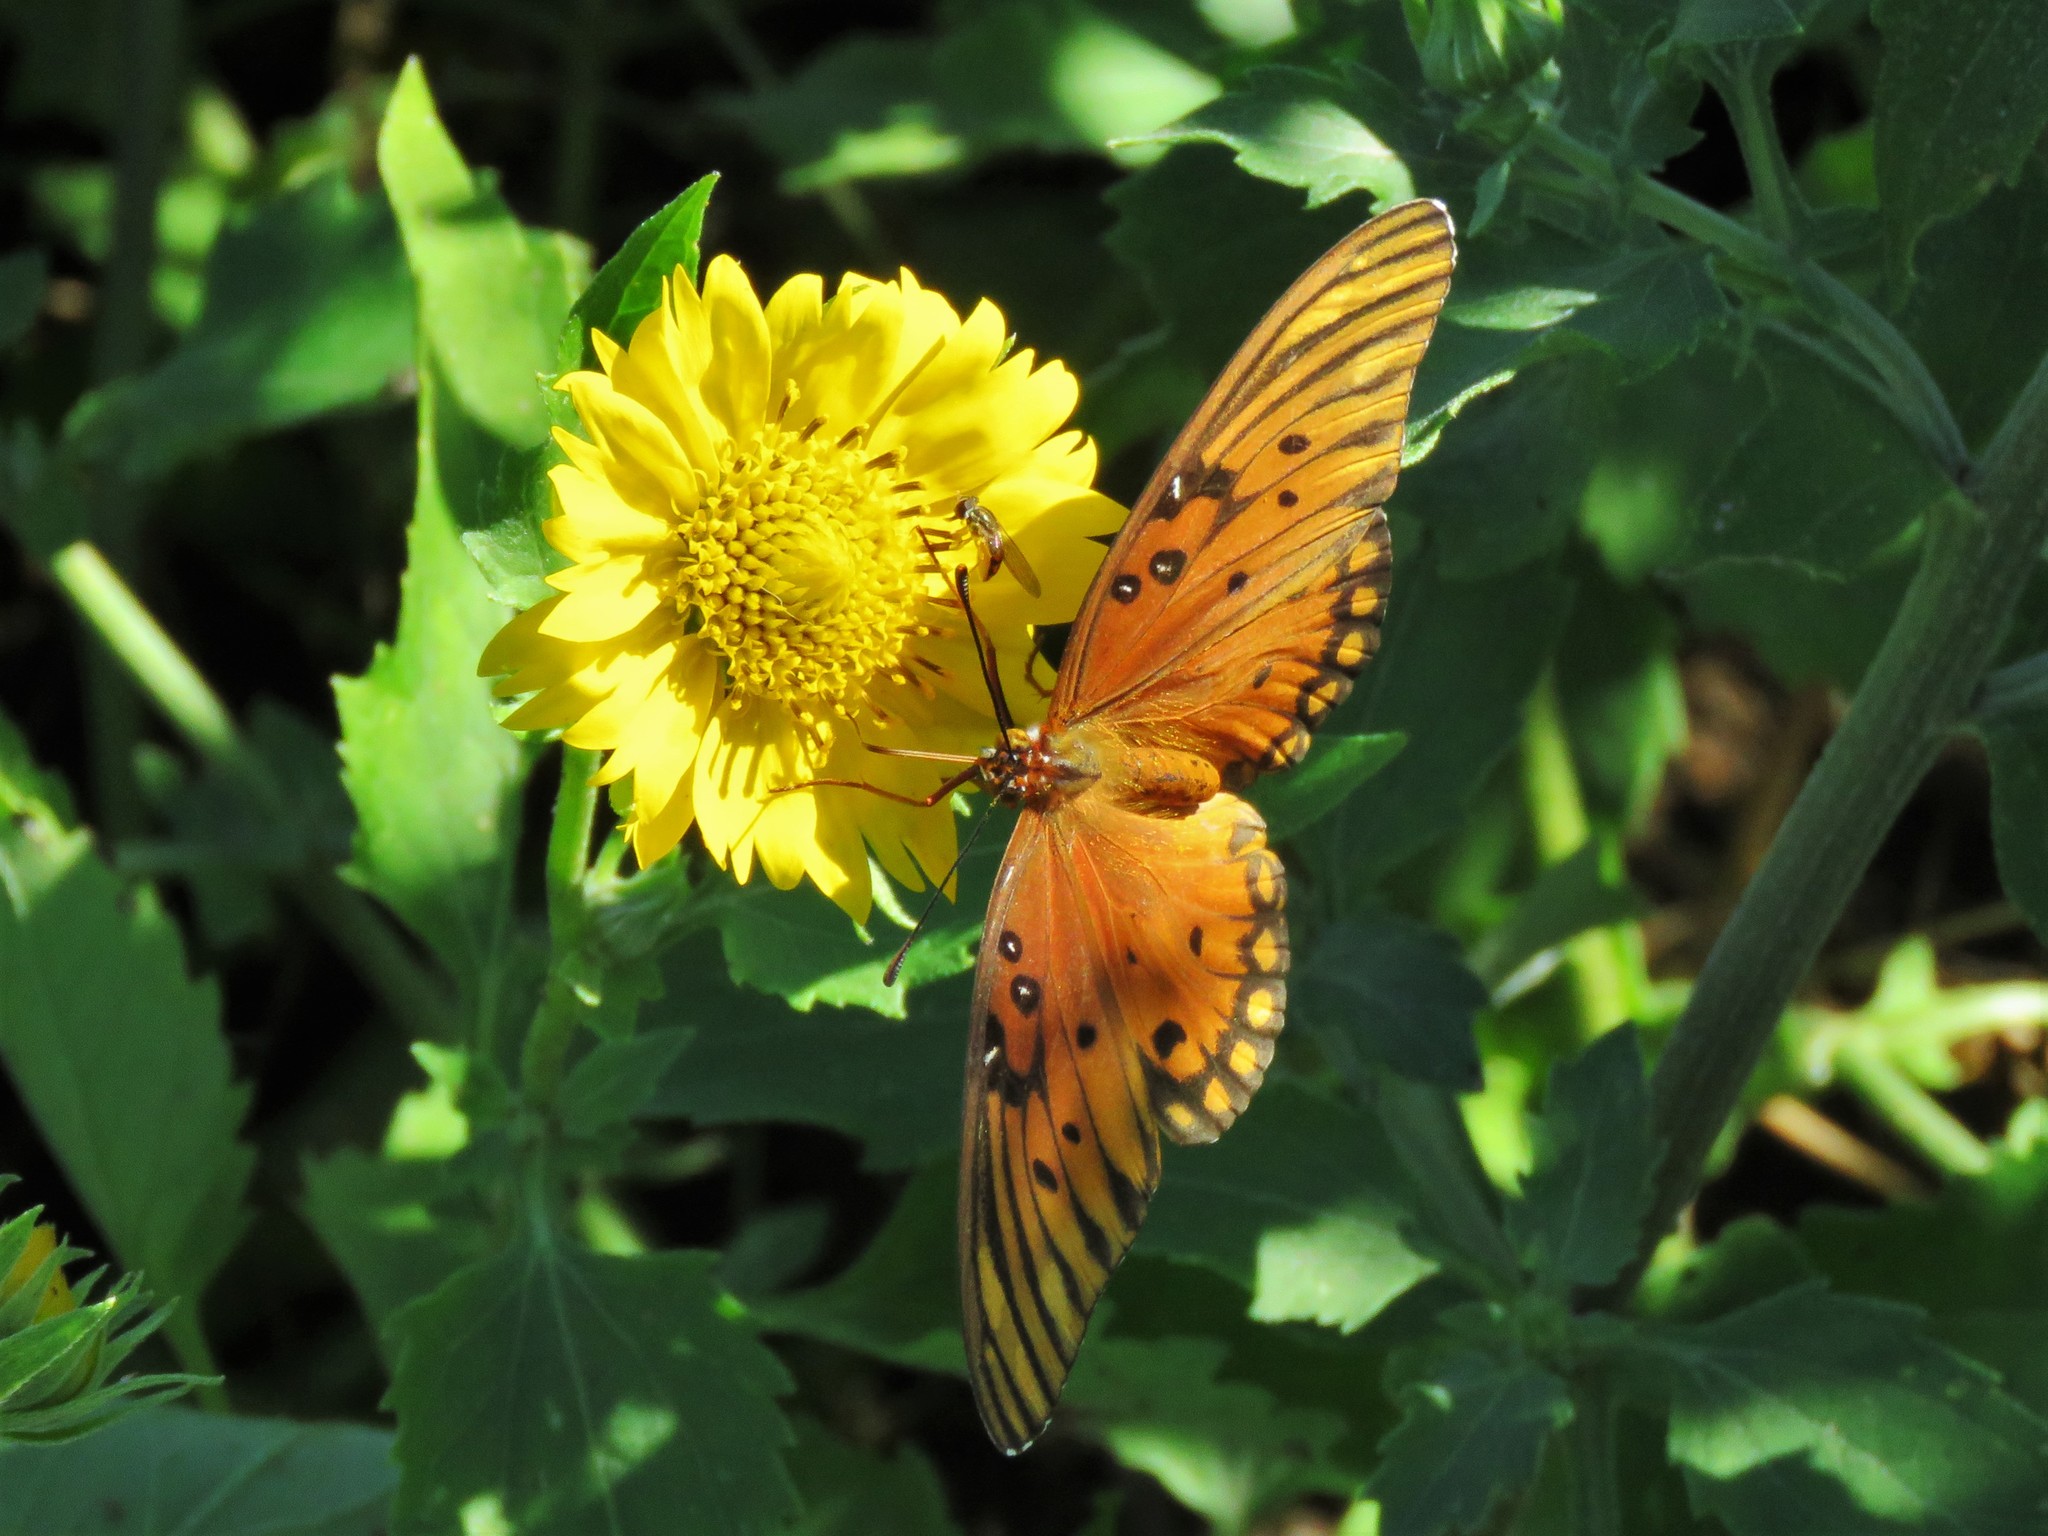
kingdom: Animalia
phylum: Arthropoda
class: Insecta
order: Lepidoptera
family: Nymphalidae
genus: Dione
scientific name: Dione vanillae
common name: Gulf fritillary
